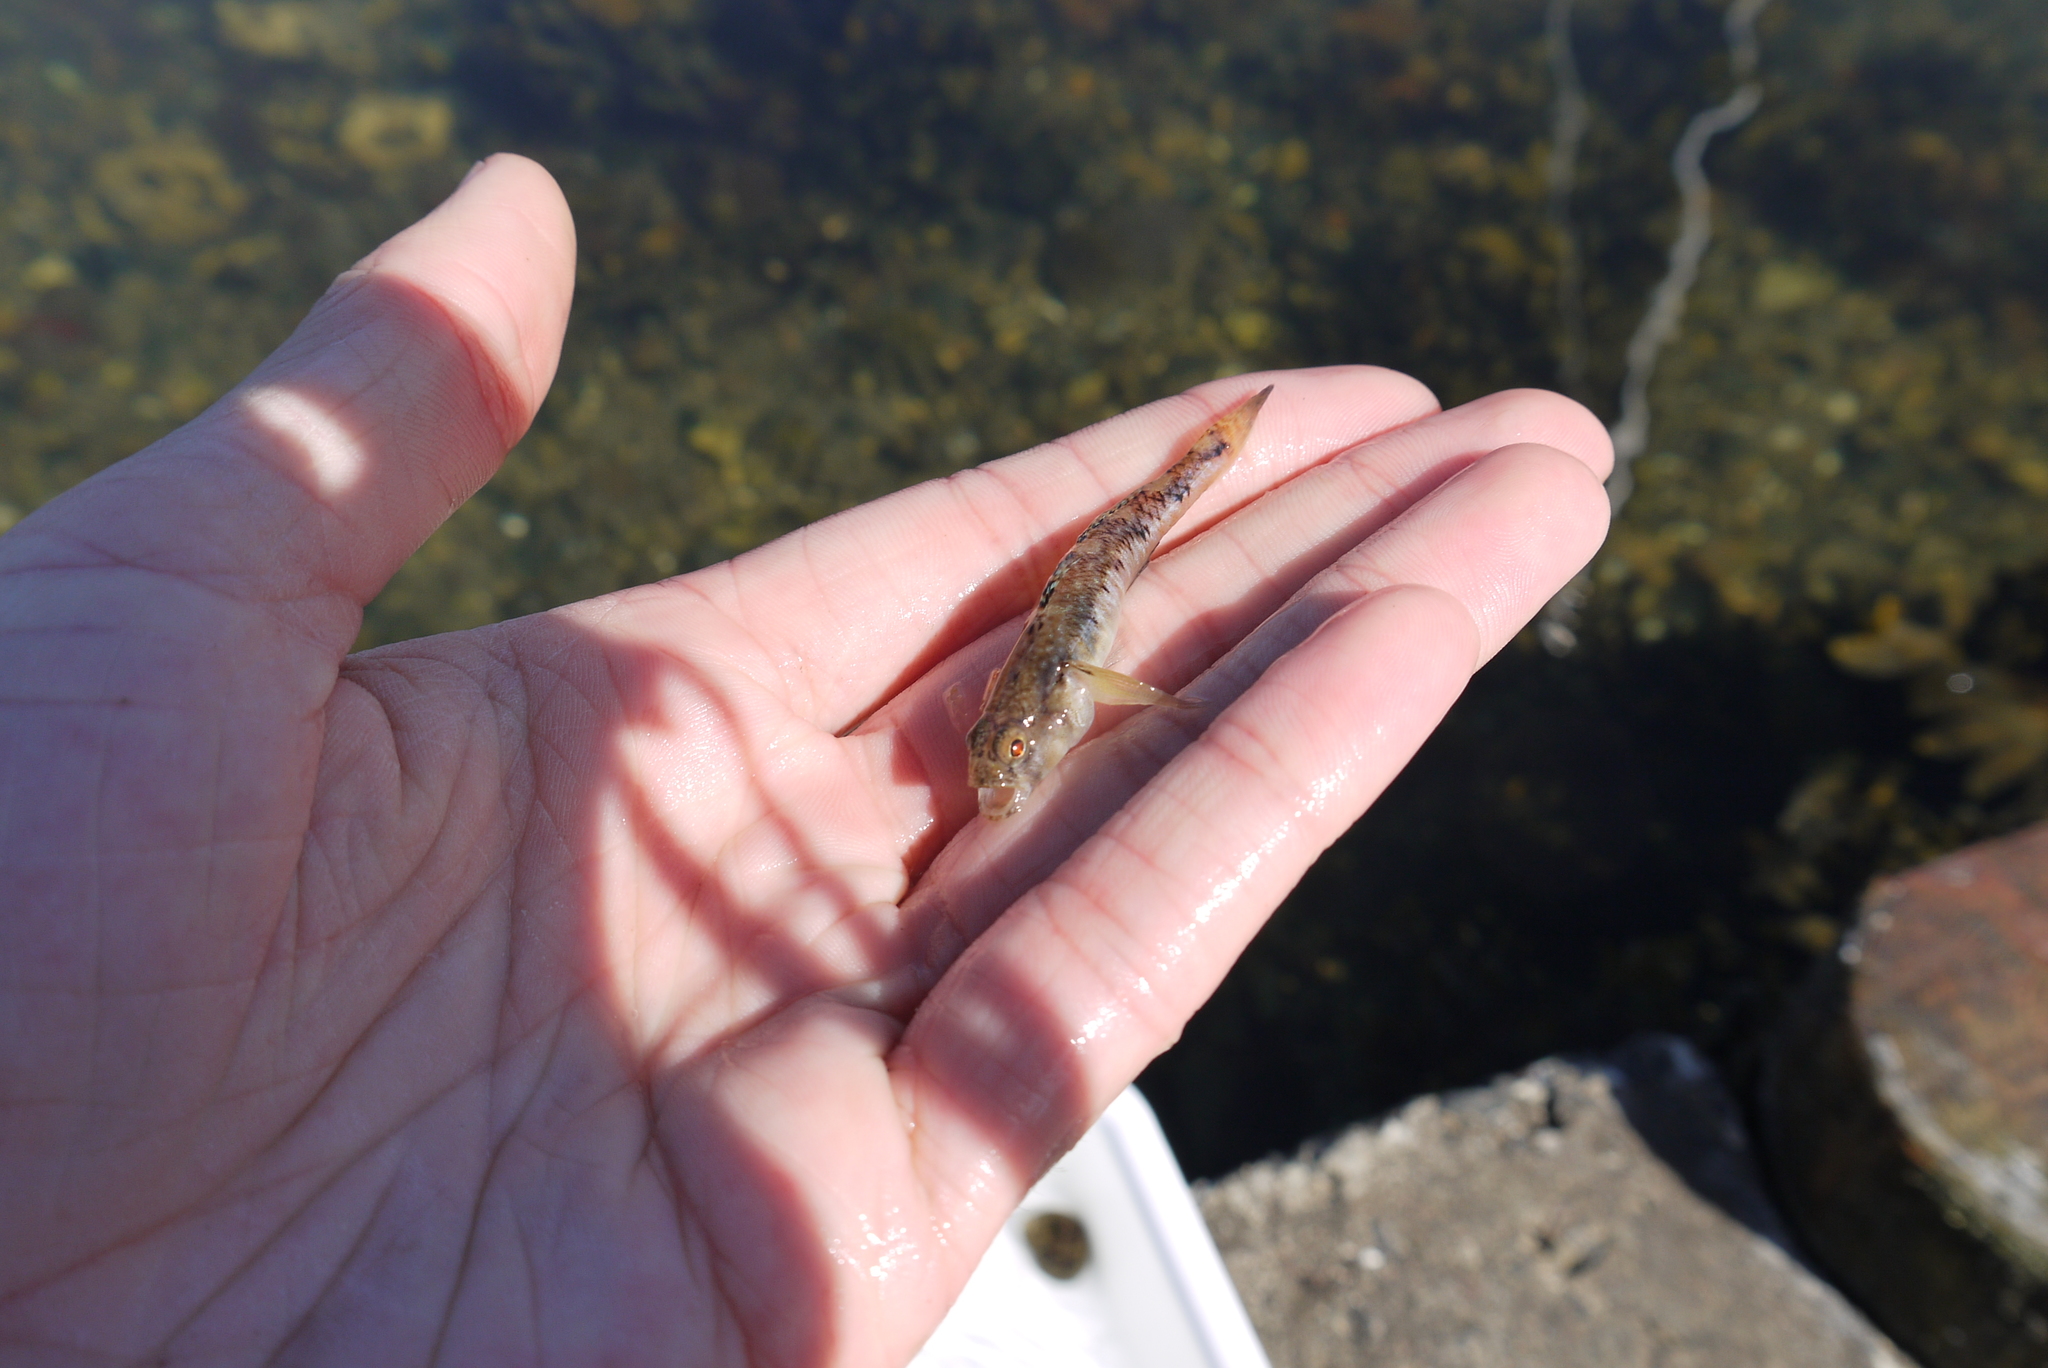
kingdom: Animalia
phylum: Chordata
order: Perciformes
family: Gobiidae
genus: Pomatoschistus
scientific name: Pomatoschistus pictus
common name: Painted goby
